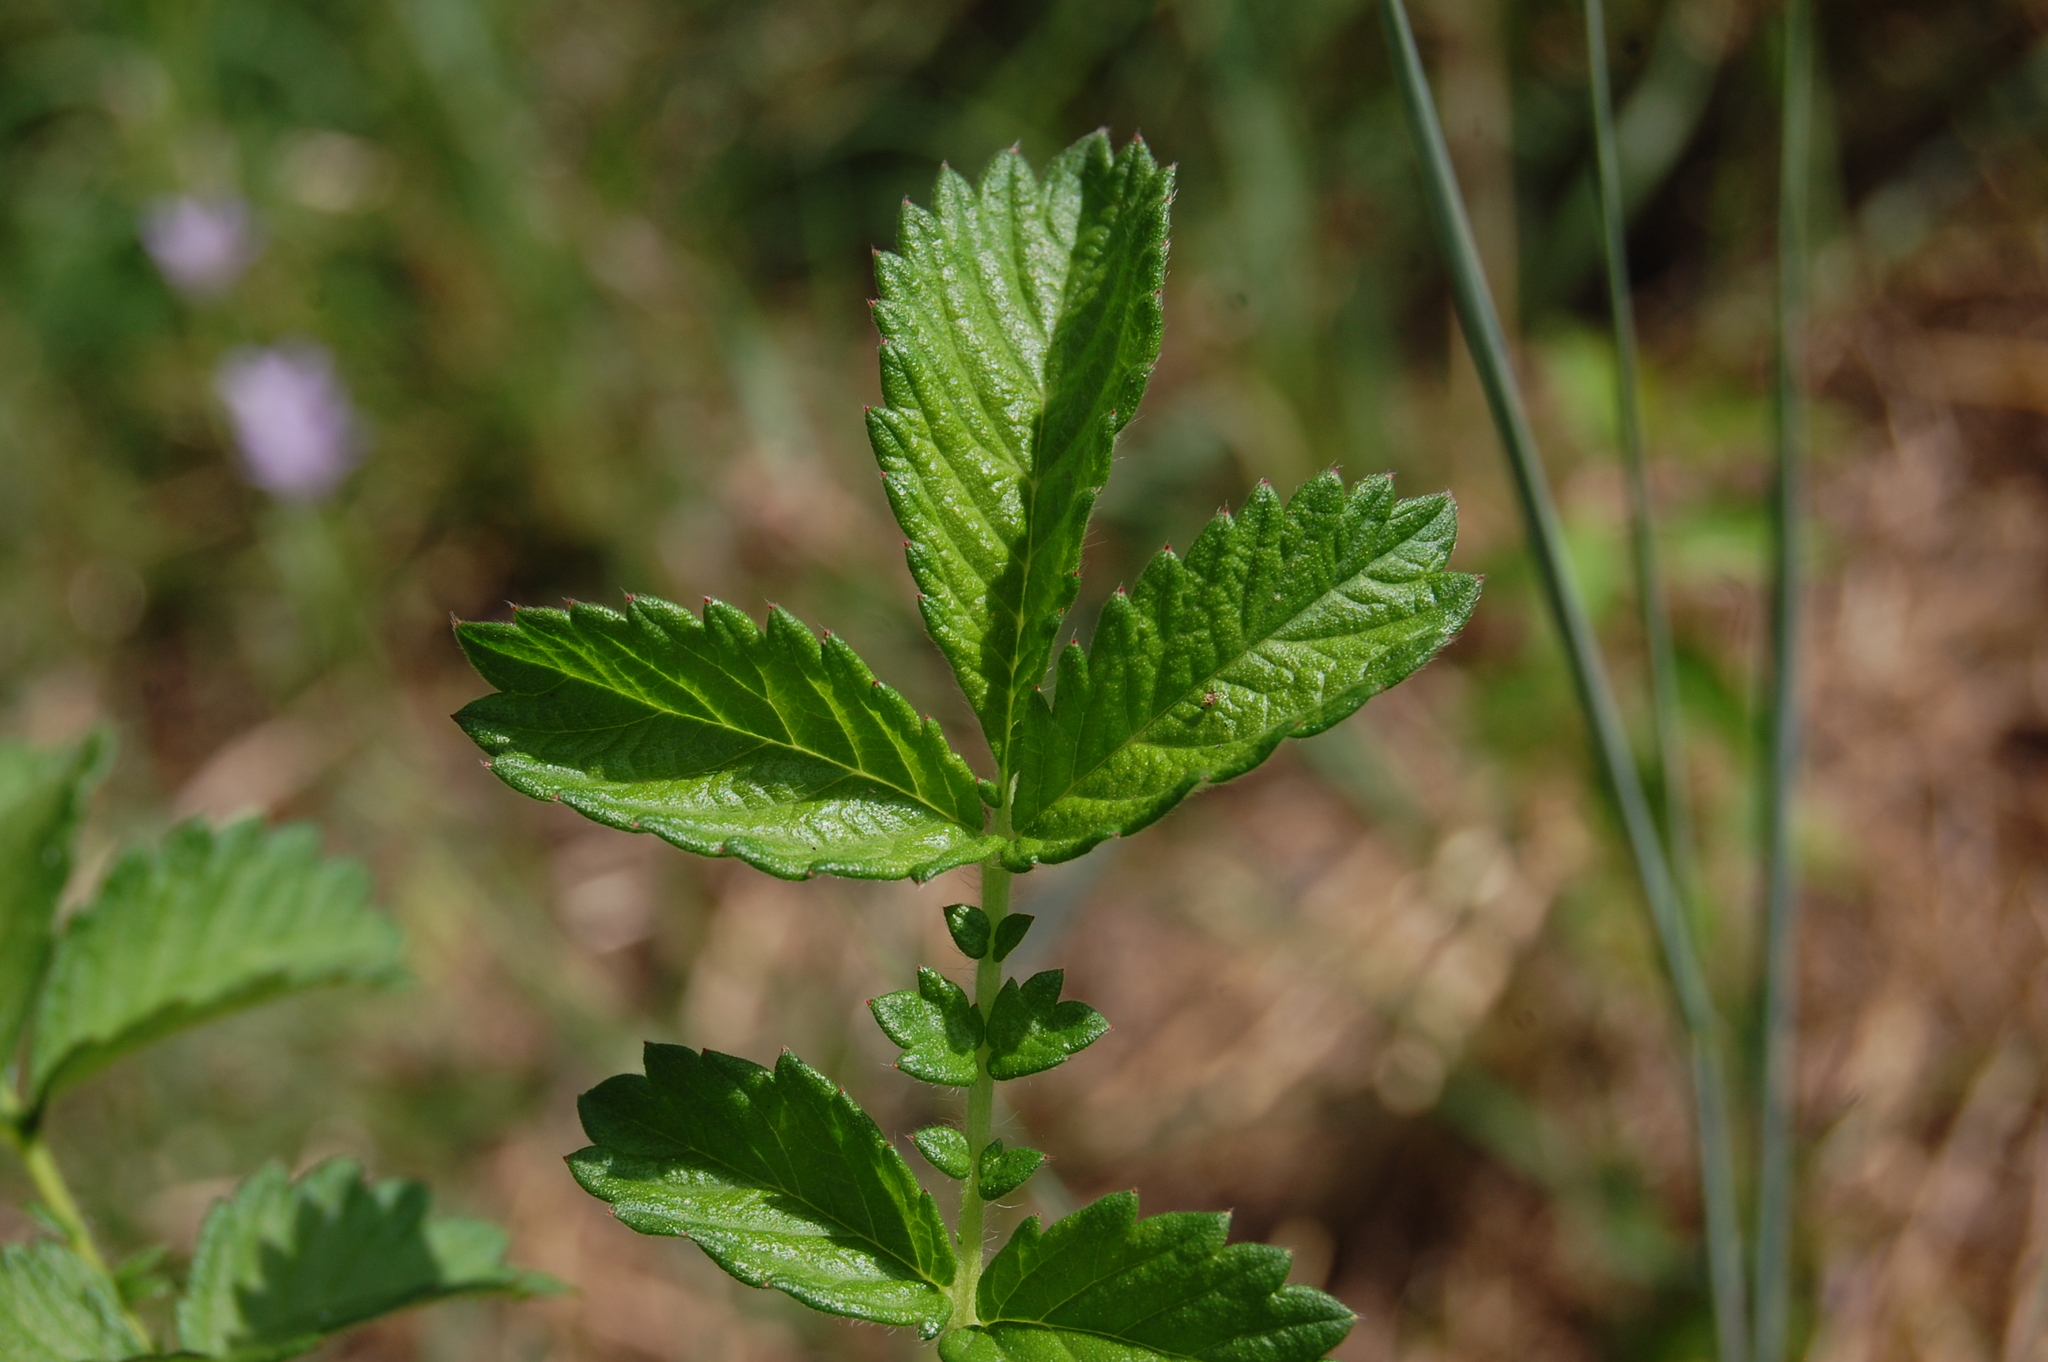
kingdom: Plantae
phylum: Tracheophyta
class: Magnoliopsida
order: Rosales
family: Rosaceae
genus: Agrimonia
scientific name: Agrimonia eupatoria
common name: Agrimony
